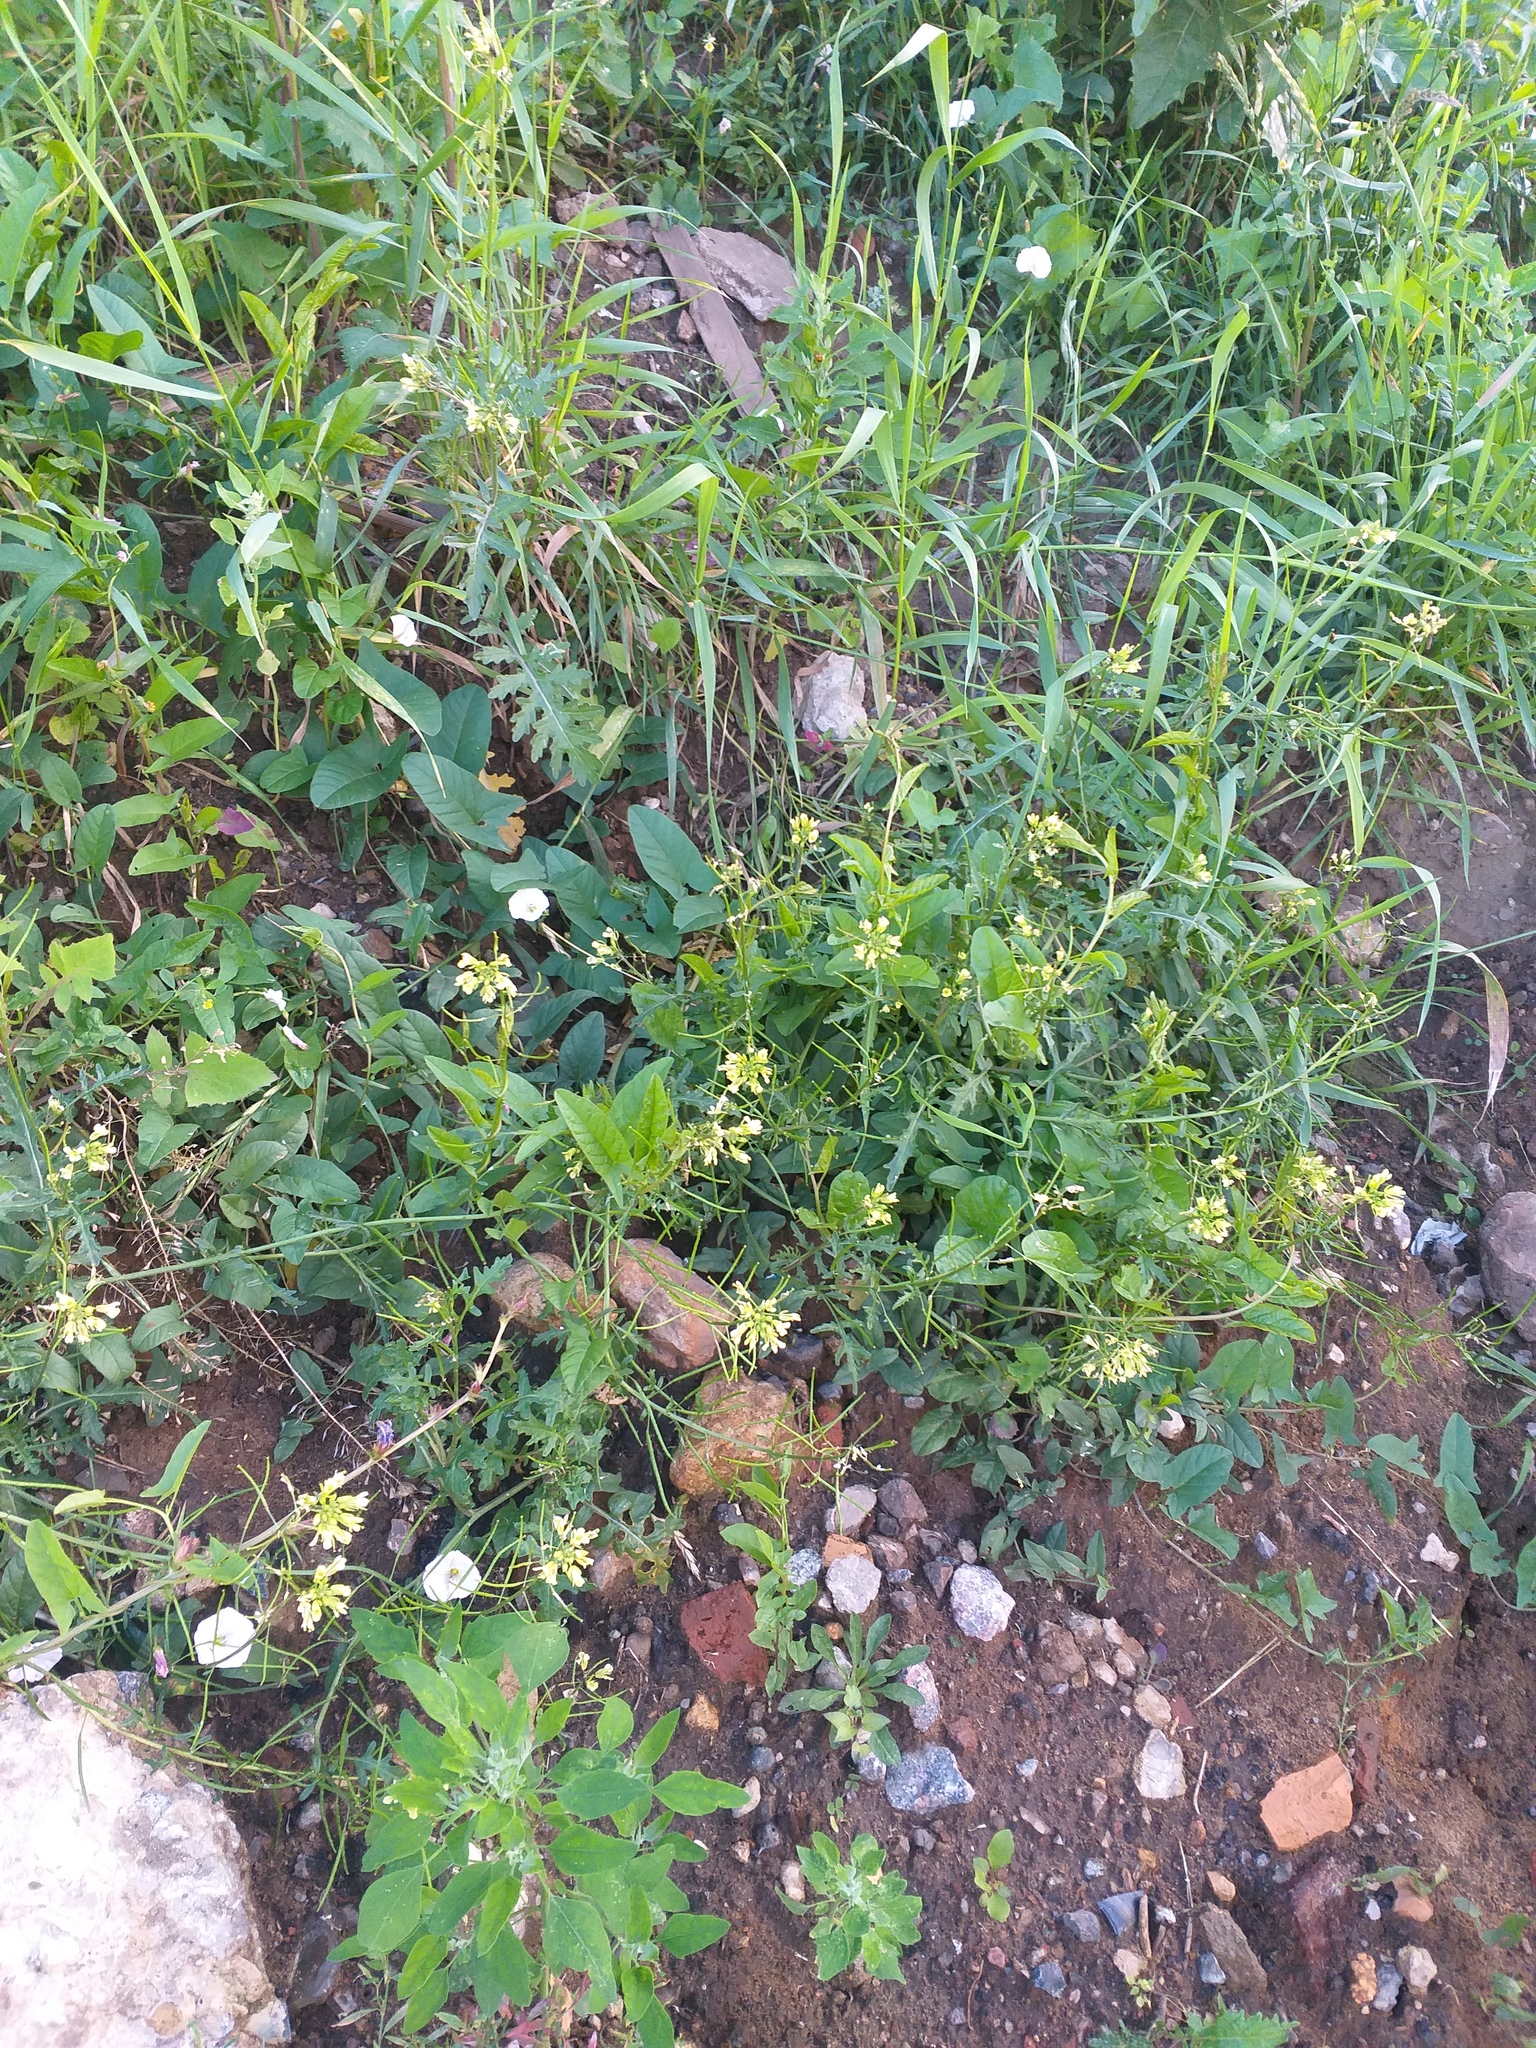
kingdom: Plantae
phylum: Tracheophyta
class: Magnoliopsida
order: Brassicales
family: Brassicaceae
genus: Erucastrum
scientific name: Erucastrum gallicum
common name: Hairy rocket
